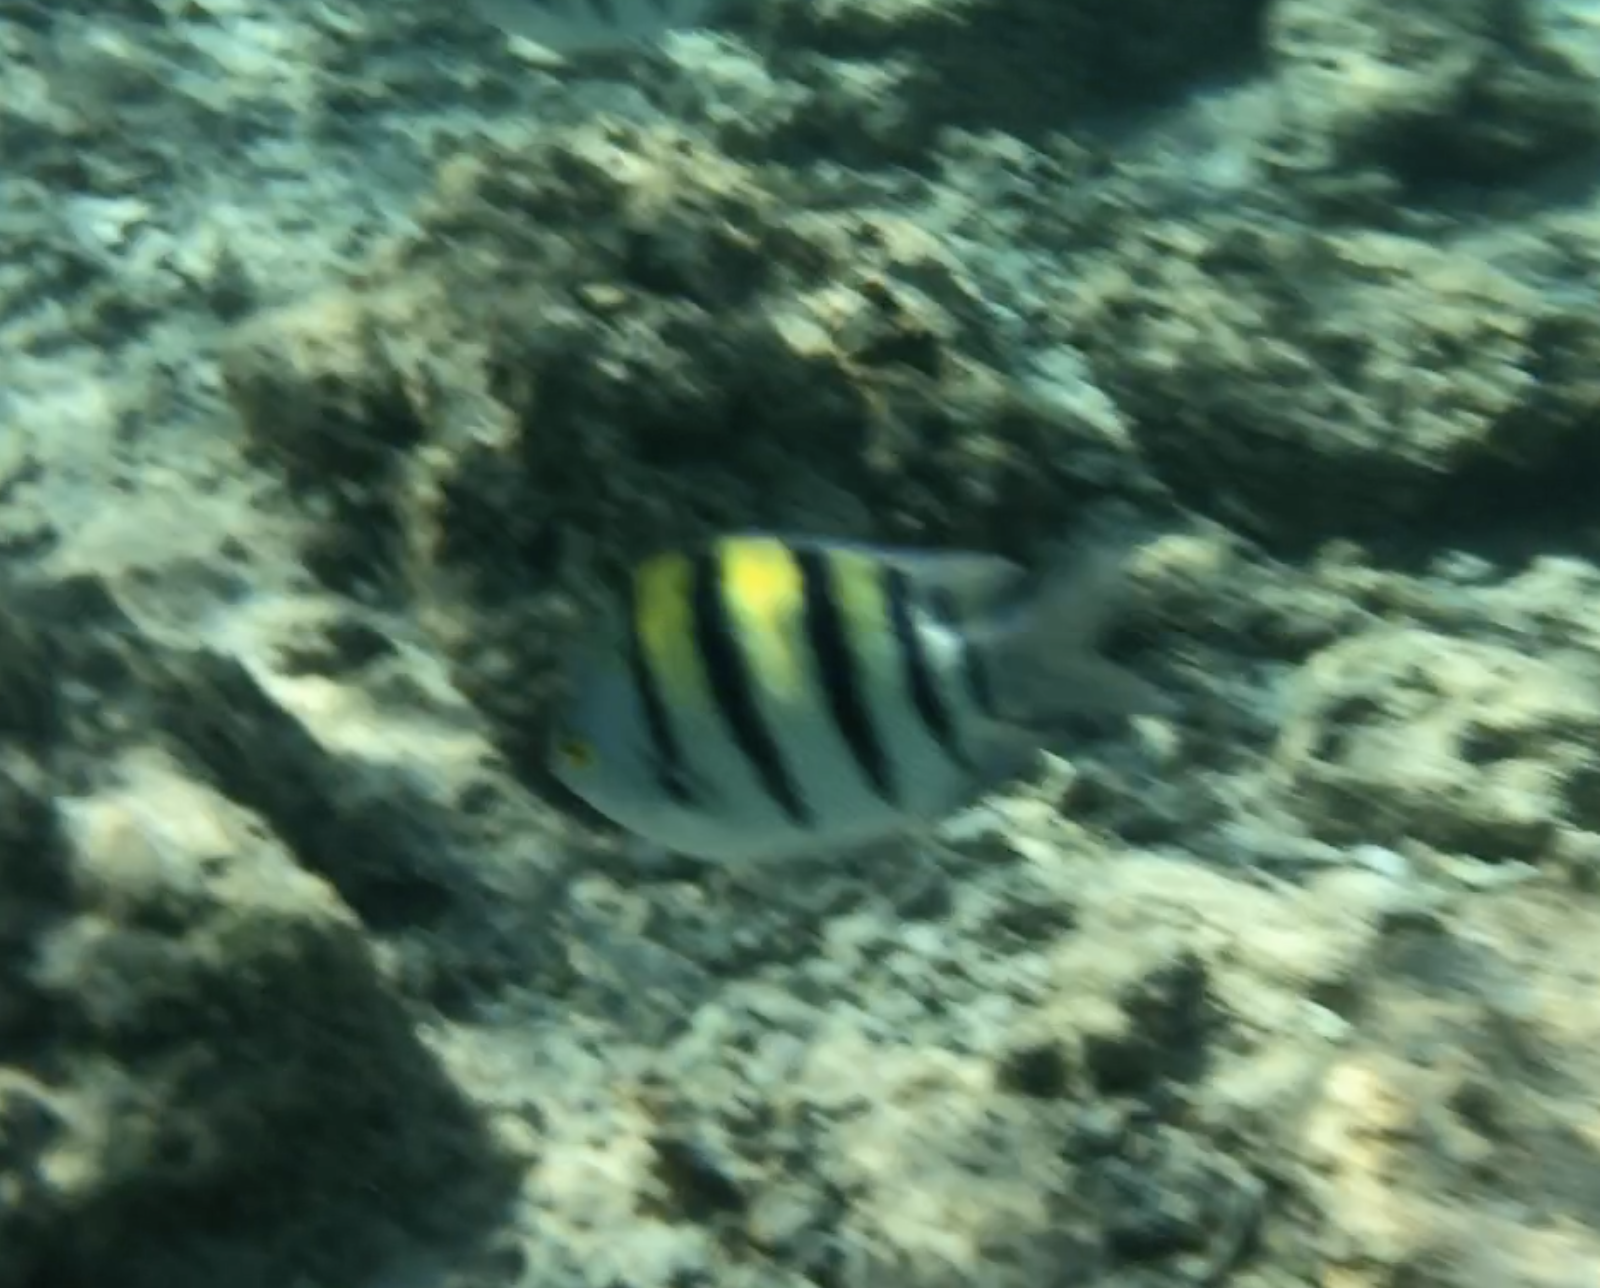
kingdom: Animalia
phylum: Chordata
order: Perciformes
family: Pomacentridae
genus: Abudefduf
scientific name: Abudefduf vaigiensis
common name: Indo-pacific sergeant
